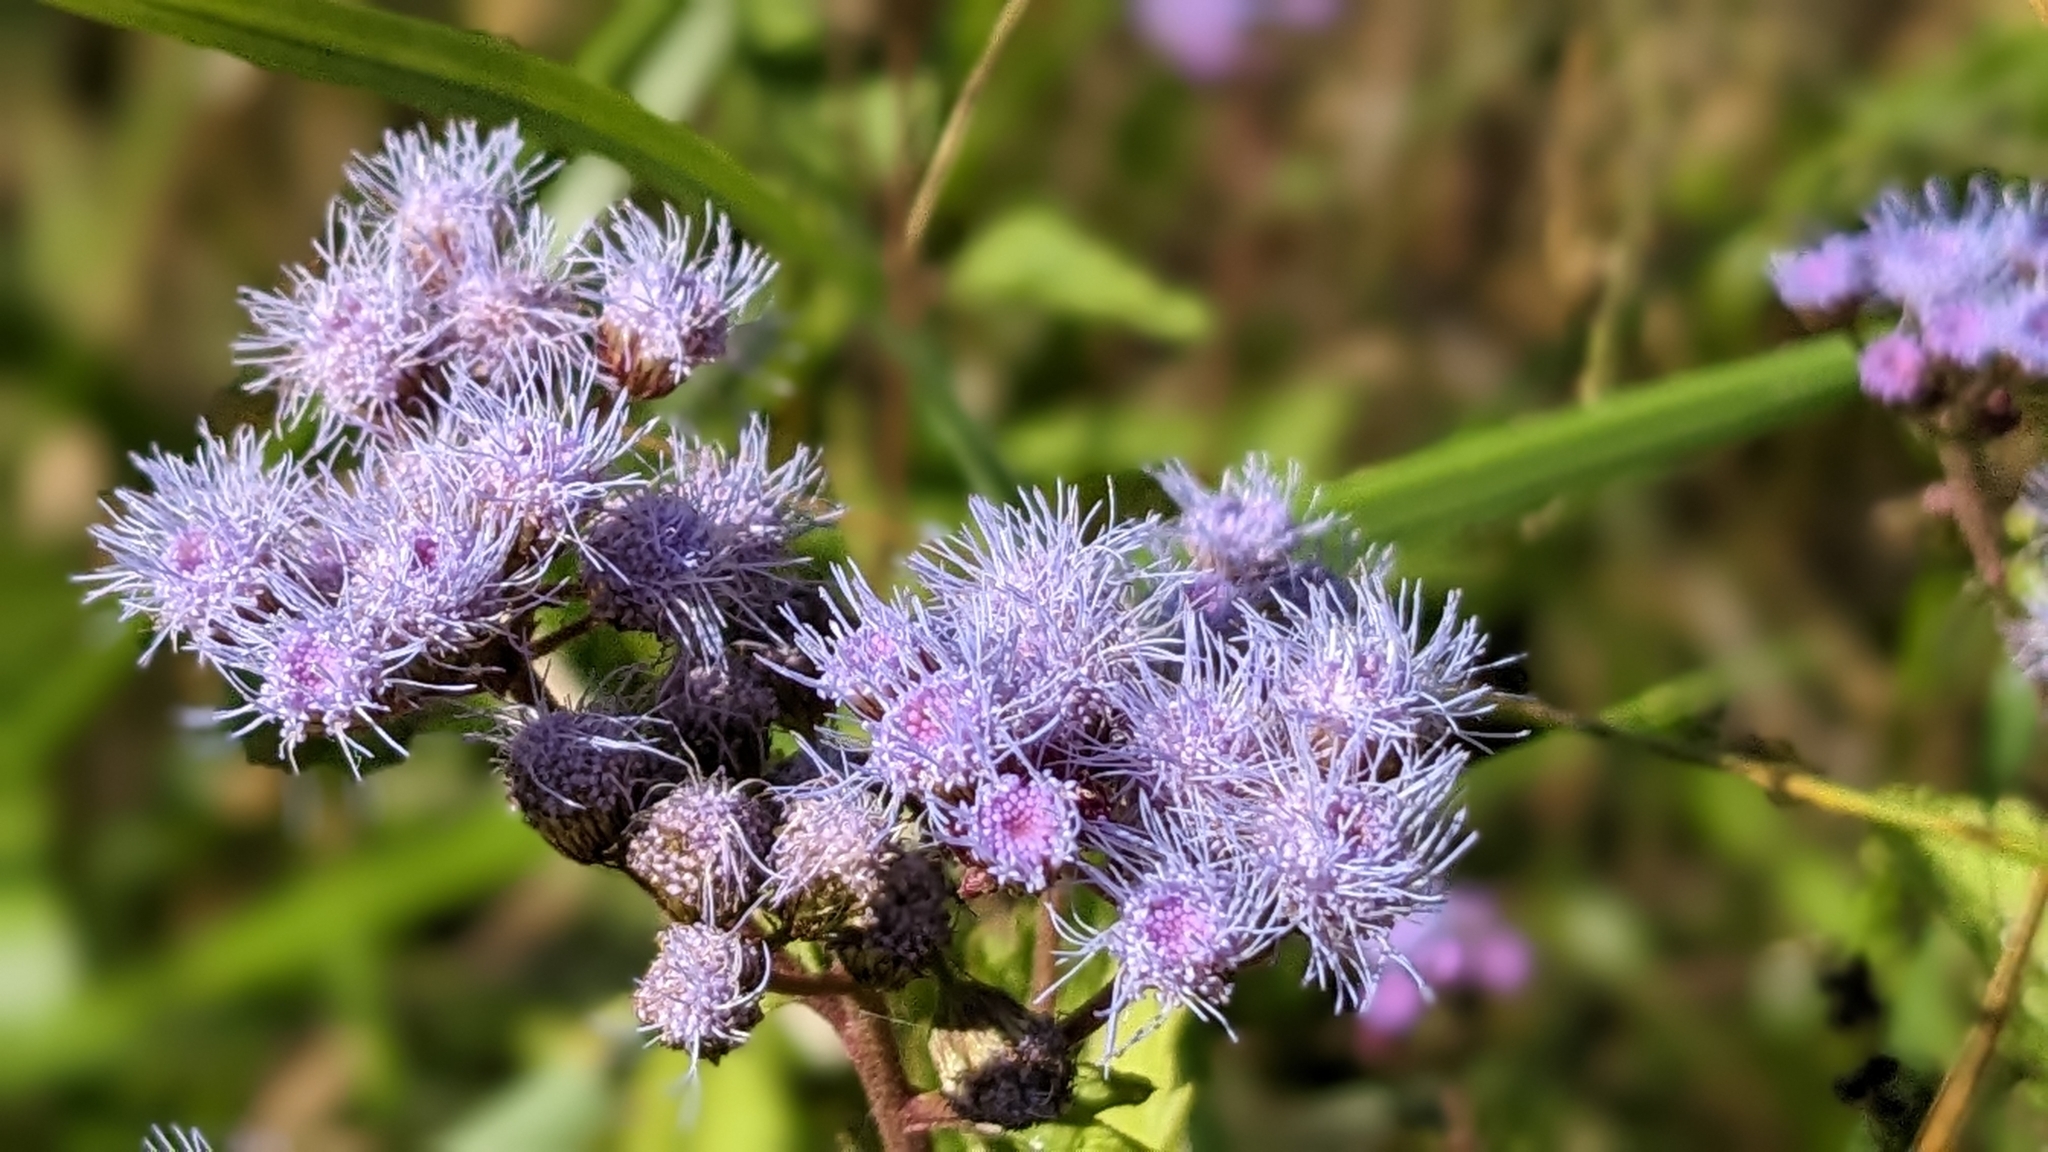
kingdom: Plantae
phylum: Tracheophyta
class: Magnoliopsida
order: Asterales
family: Asteraceae
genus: Conoclinium
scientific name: Conoclinium coelestinum
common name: Blue mistflower
